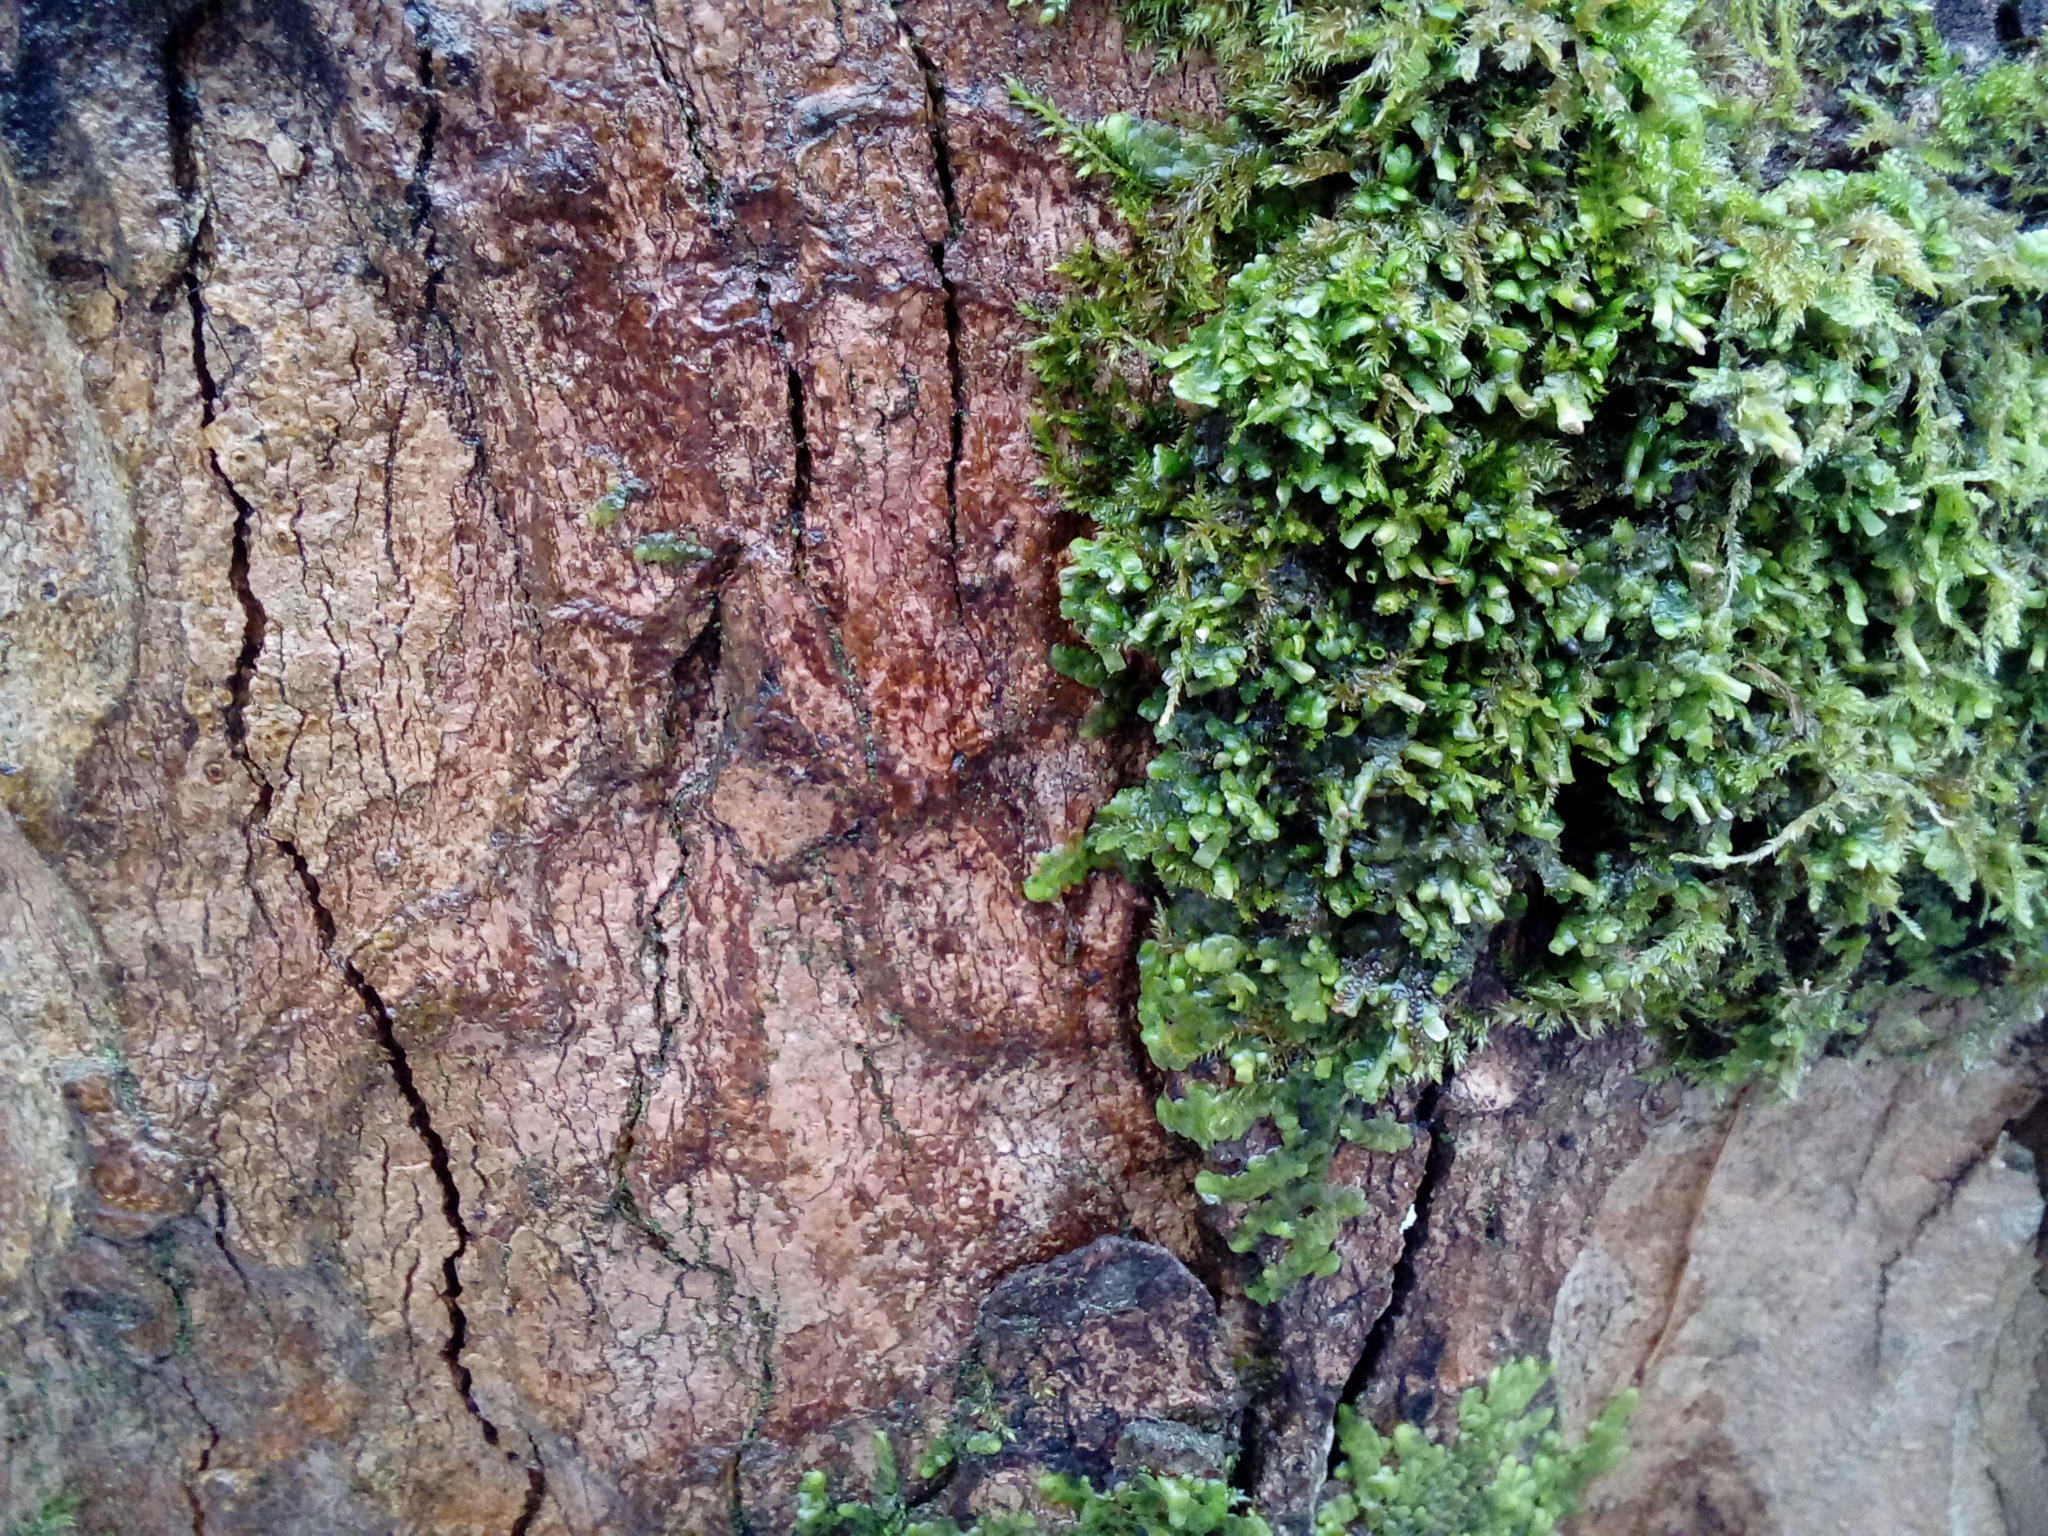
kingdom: Plantae
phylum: Marchantiophyta
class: Jungermanniopsida
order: Porellales
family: Radulaceae
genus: Radula
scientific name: Radula complanata
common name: Flat-leaved scalewort
